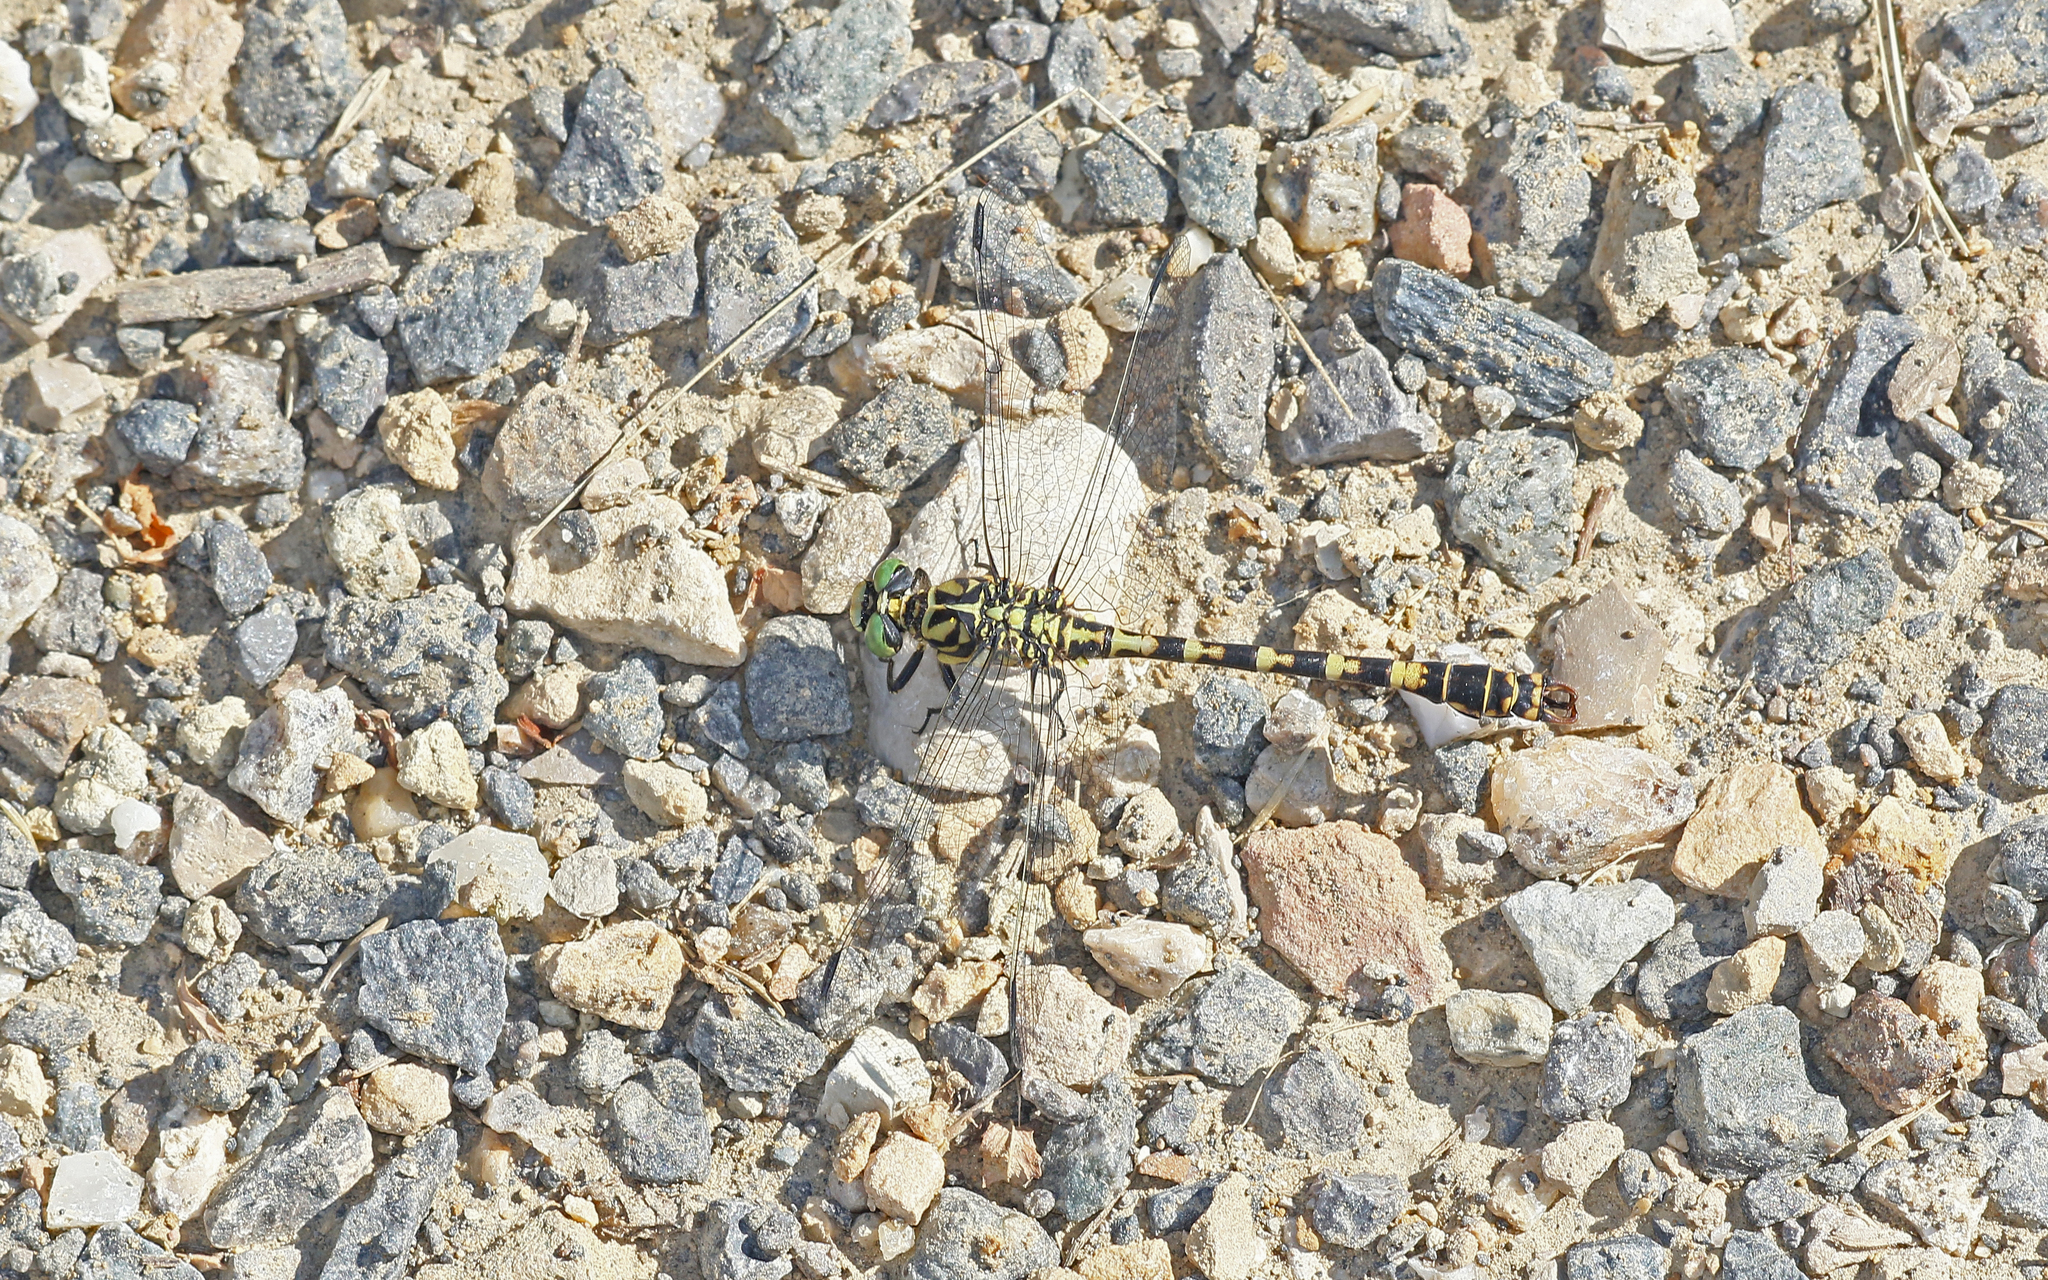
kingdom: Animalia
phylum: Arthropoda
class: Insecta
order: Odonata
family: Gomphidae
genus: Onychogomphus
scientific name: Onychogomphus forcipatus
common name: Small pincertail
